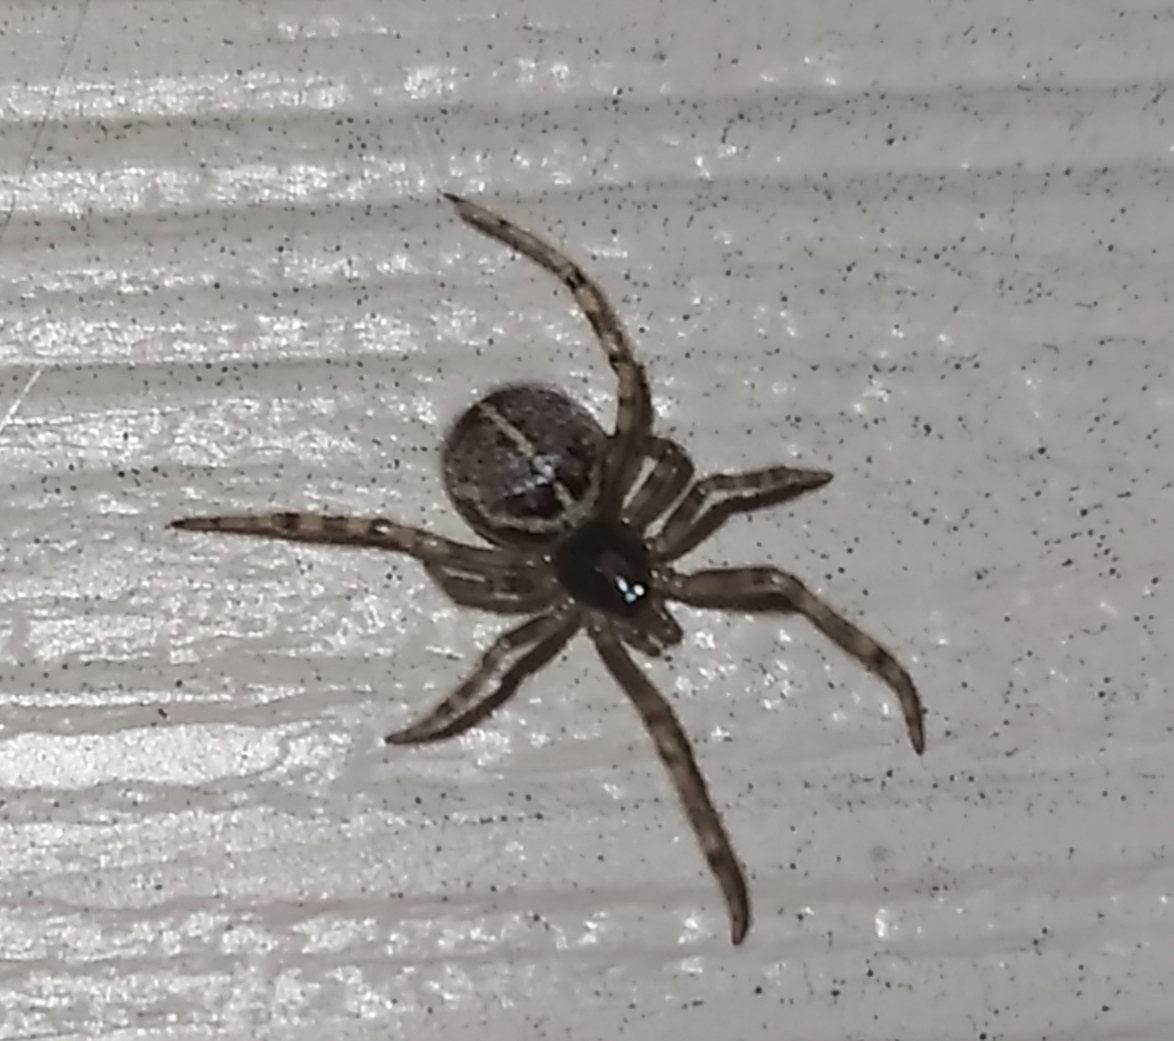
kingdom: Animalia
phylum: Arthropoda
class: Arachnida
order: Araneae
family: Theridiidae
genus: Steatoda
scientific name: Steatoda castanea
